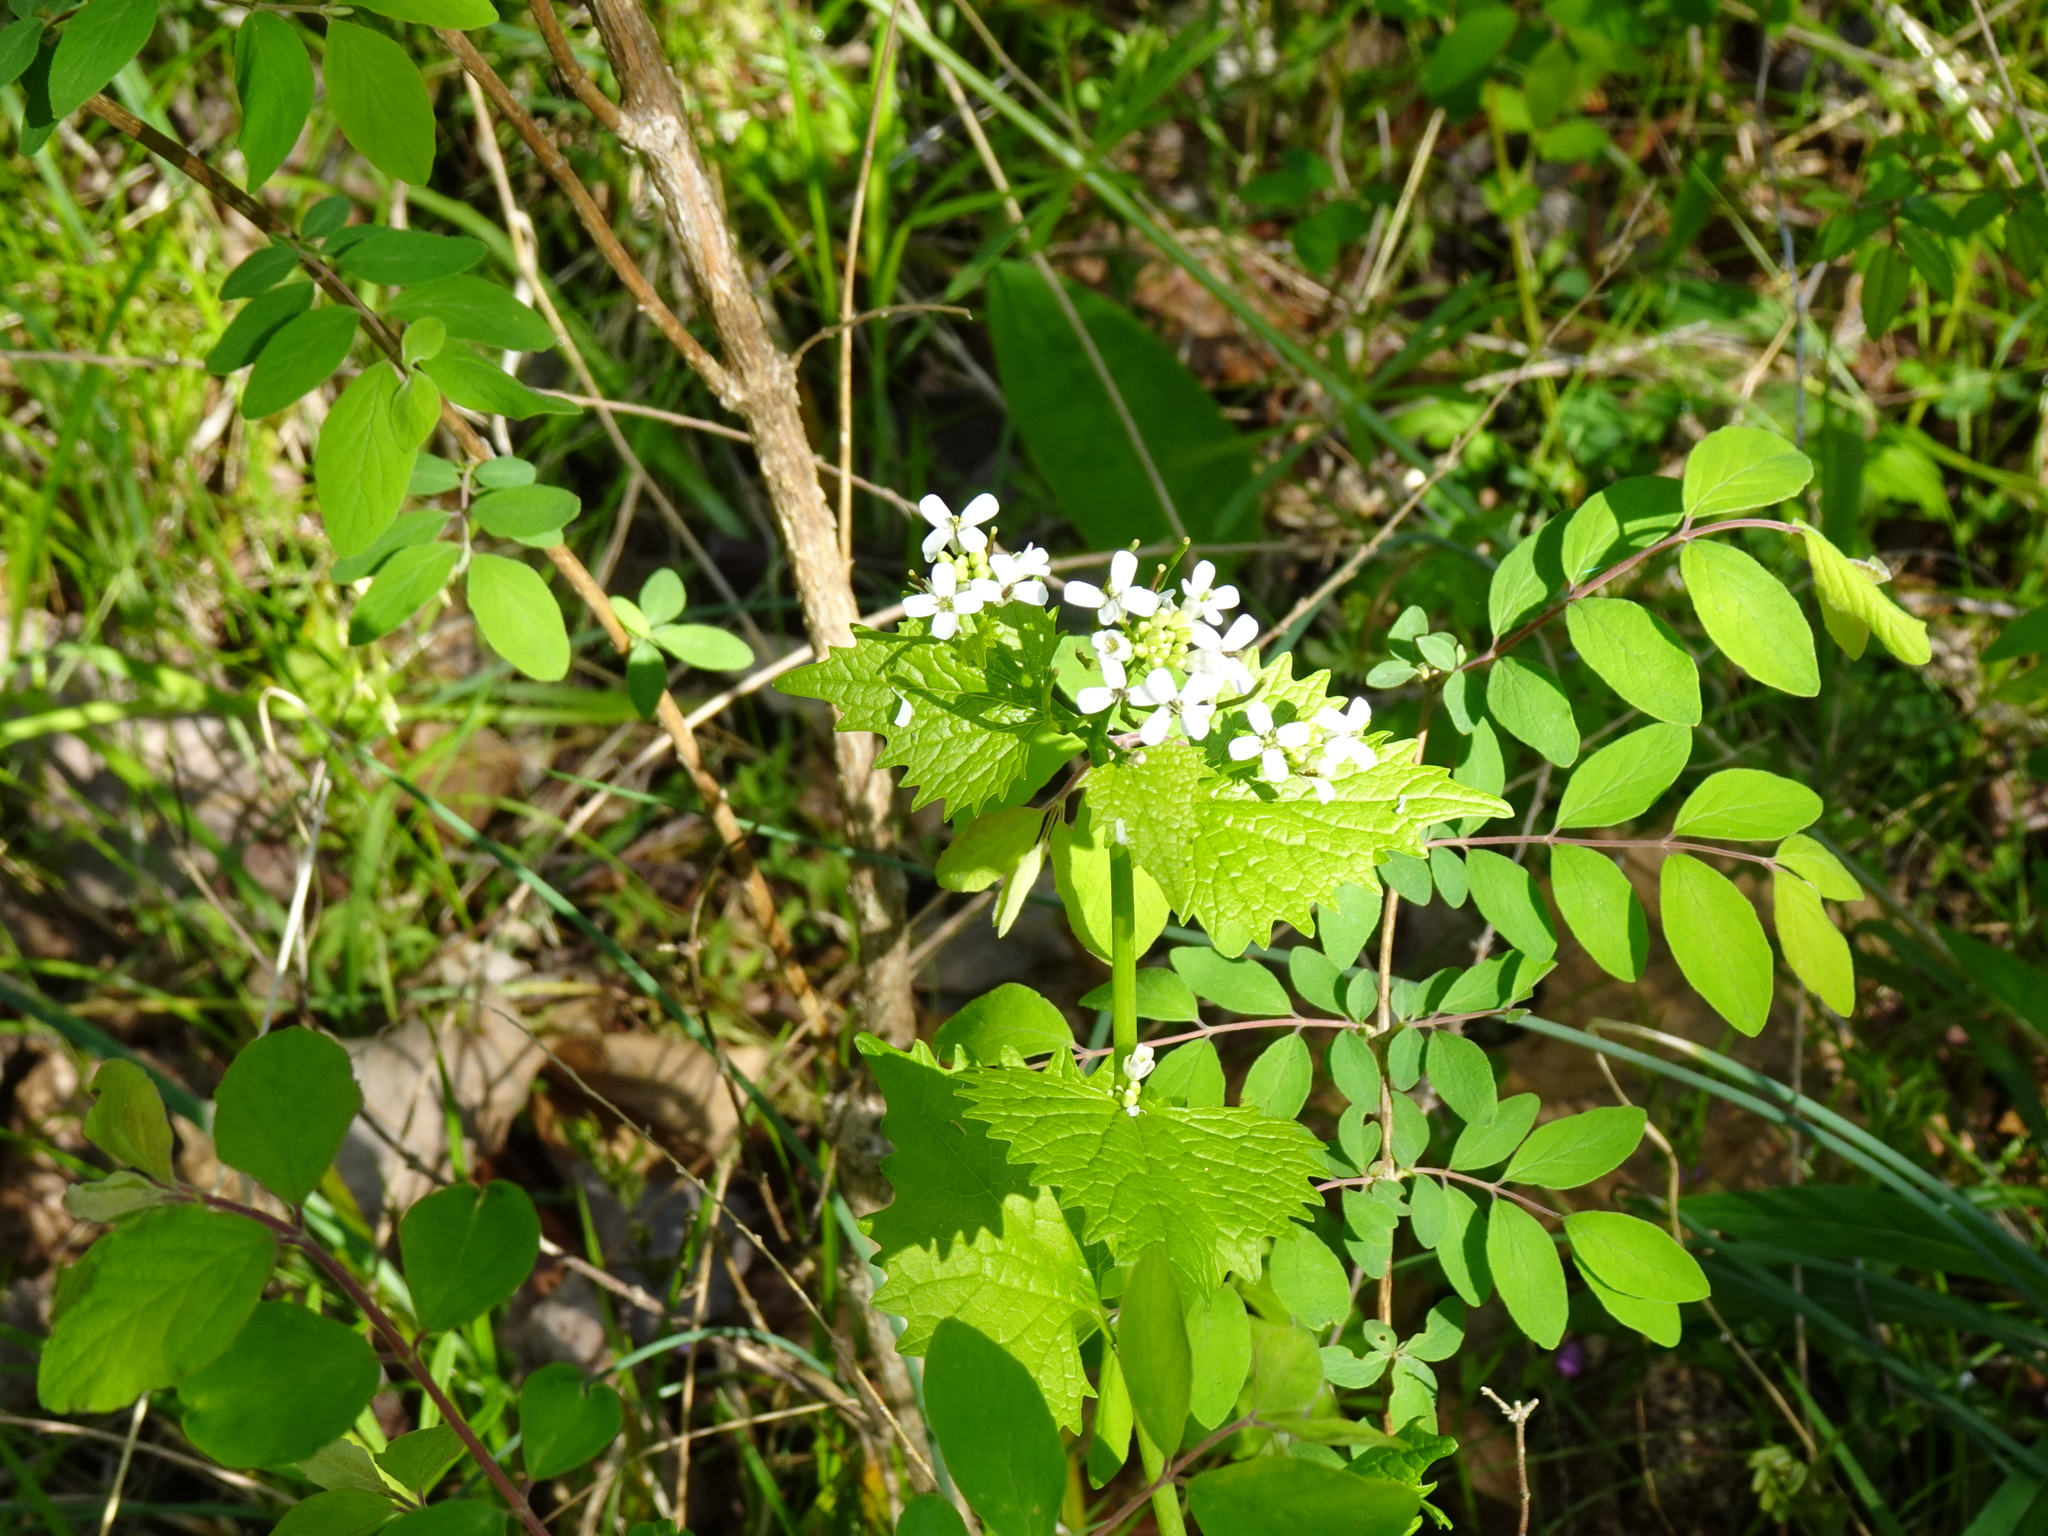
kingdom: Plantae
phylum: Tracheophyta
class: Magnoliopsida
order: Brassicales
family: Brassicaceae
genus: Alliaria
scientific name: Alliaria petiolata
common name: Garlic mustard
